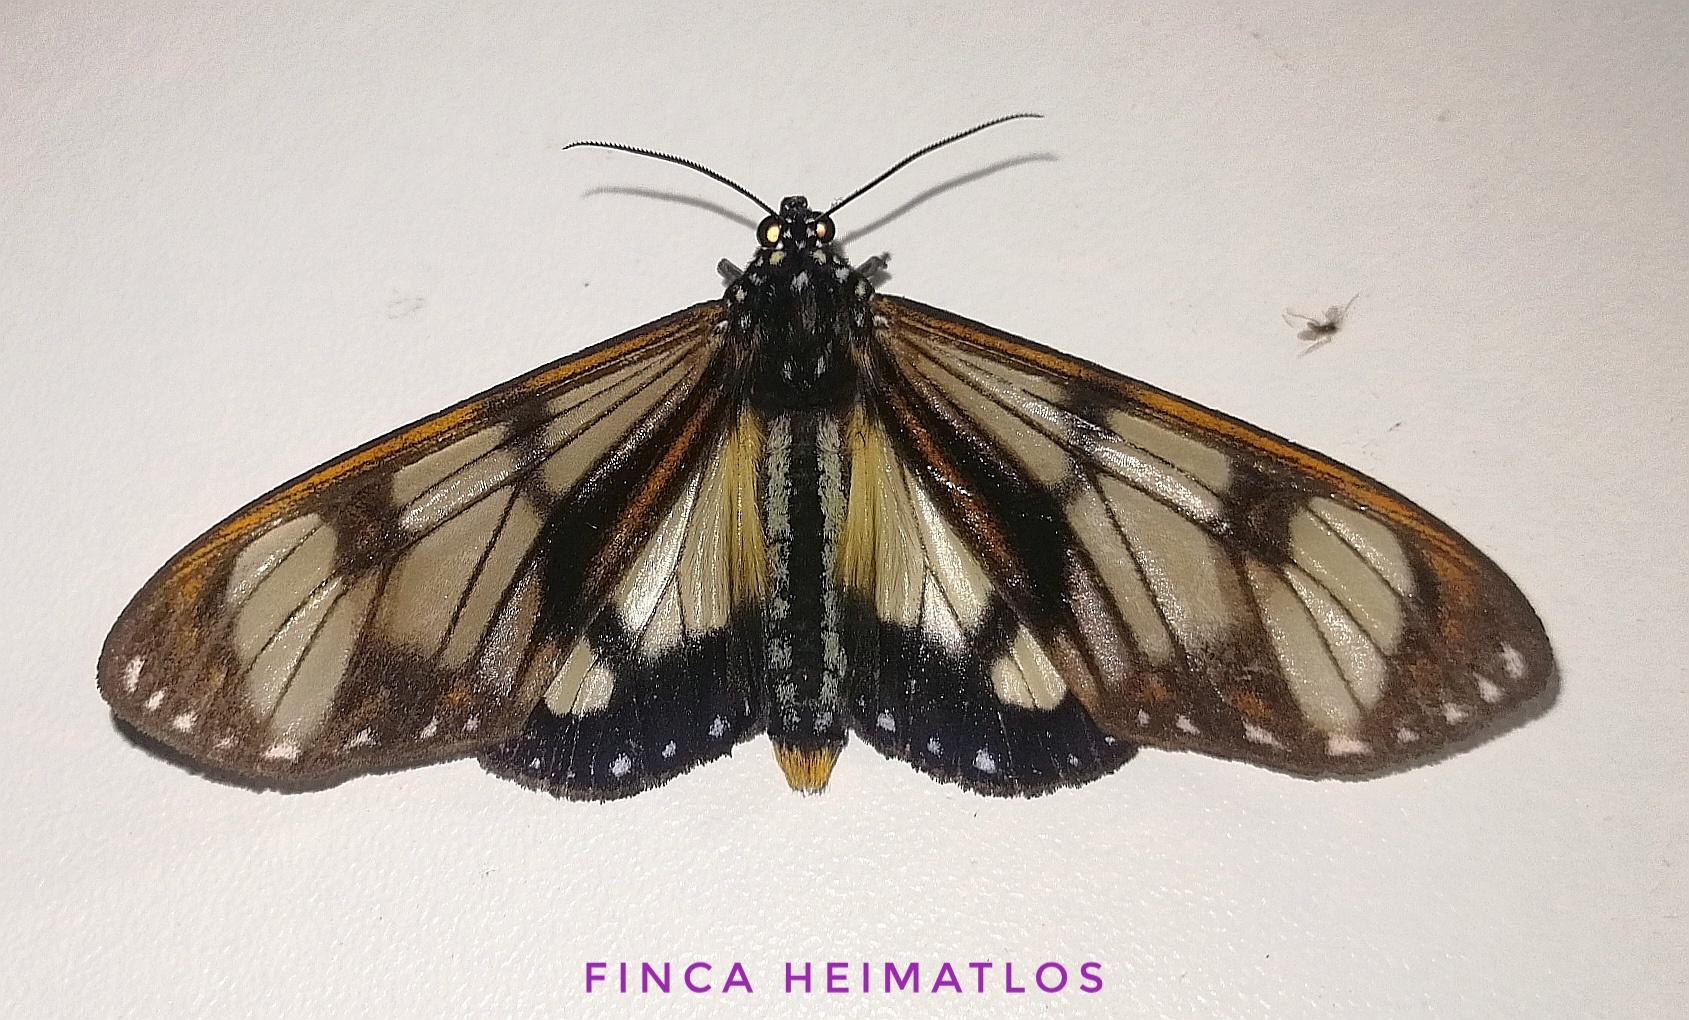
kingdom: Animalia
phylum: Arthropoda
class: Insecta
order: Lepidoptera
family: Erebidae
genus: Dysschema
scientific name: Dysschema eurocilia
